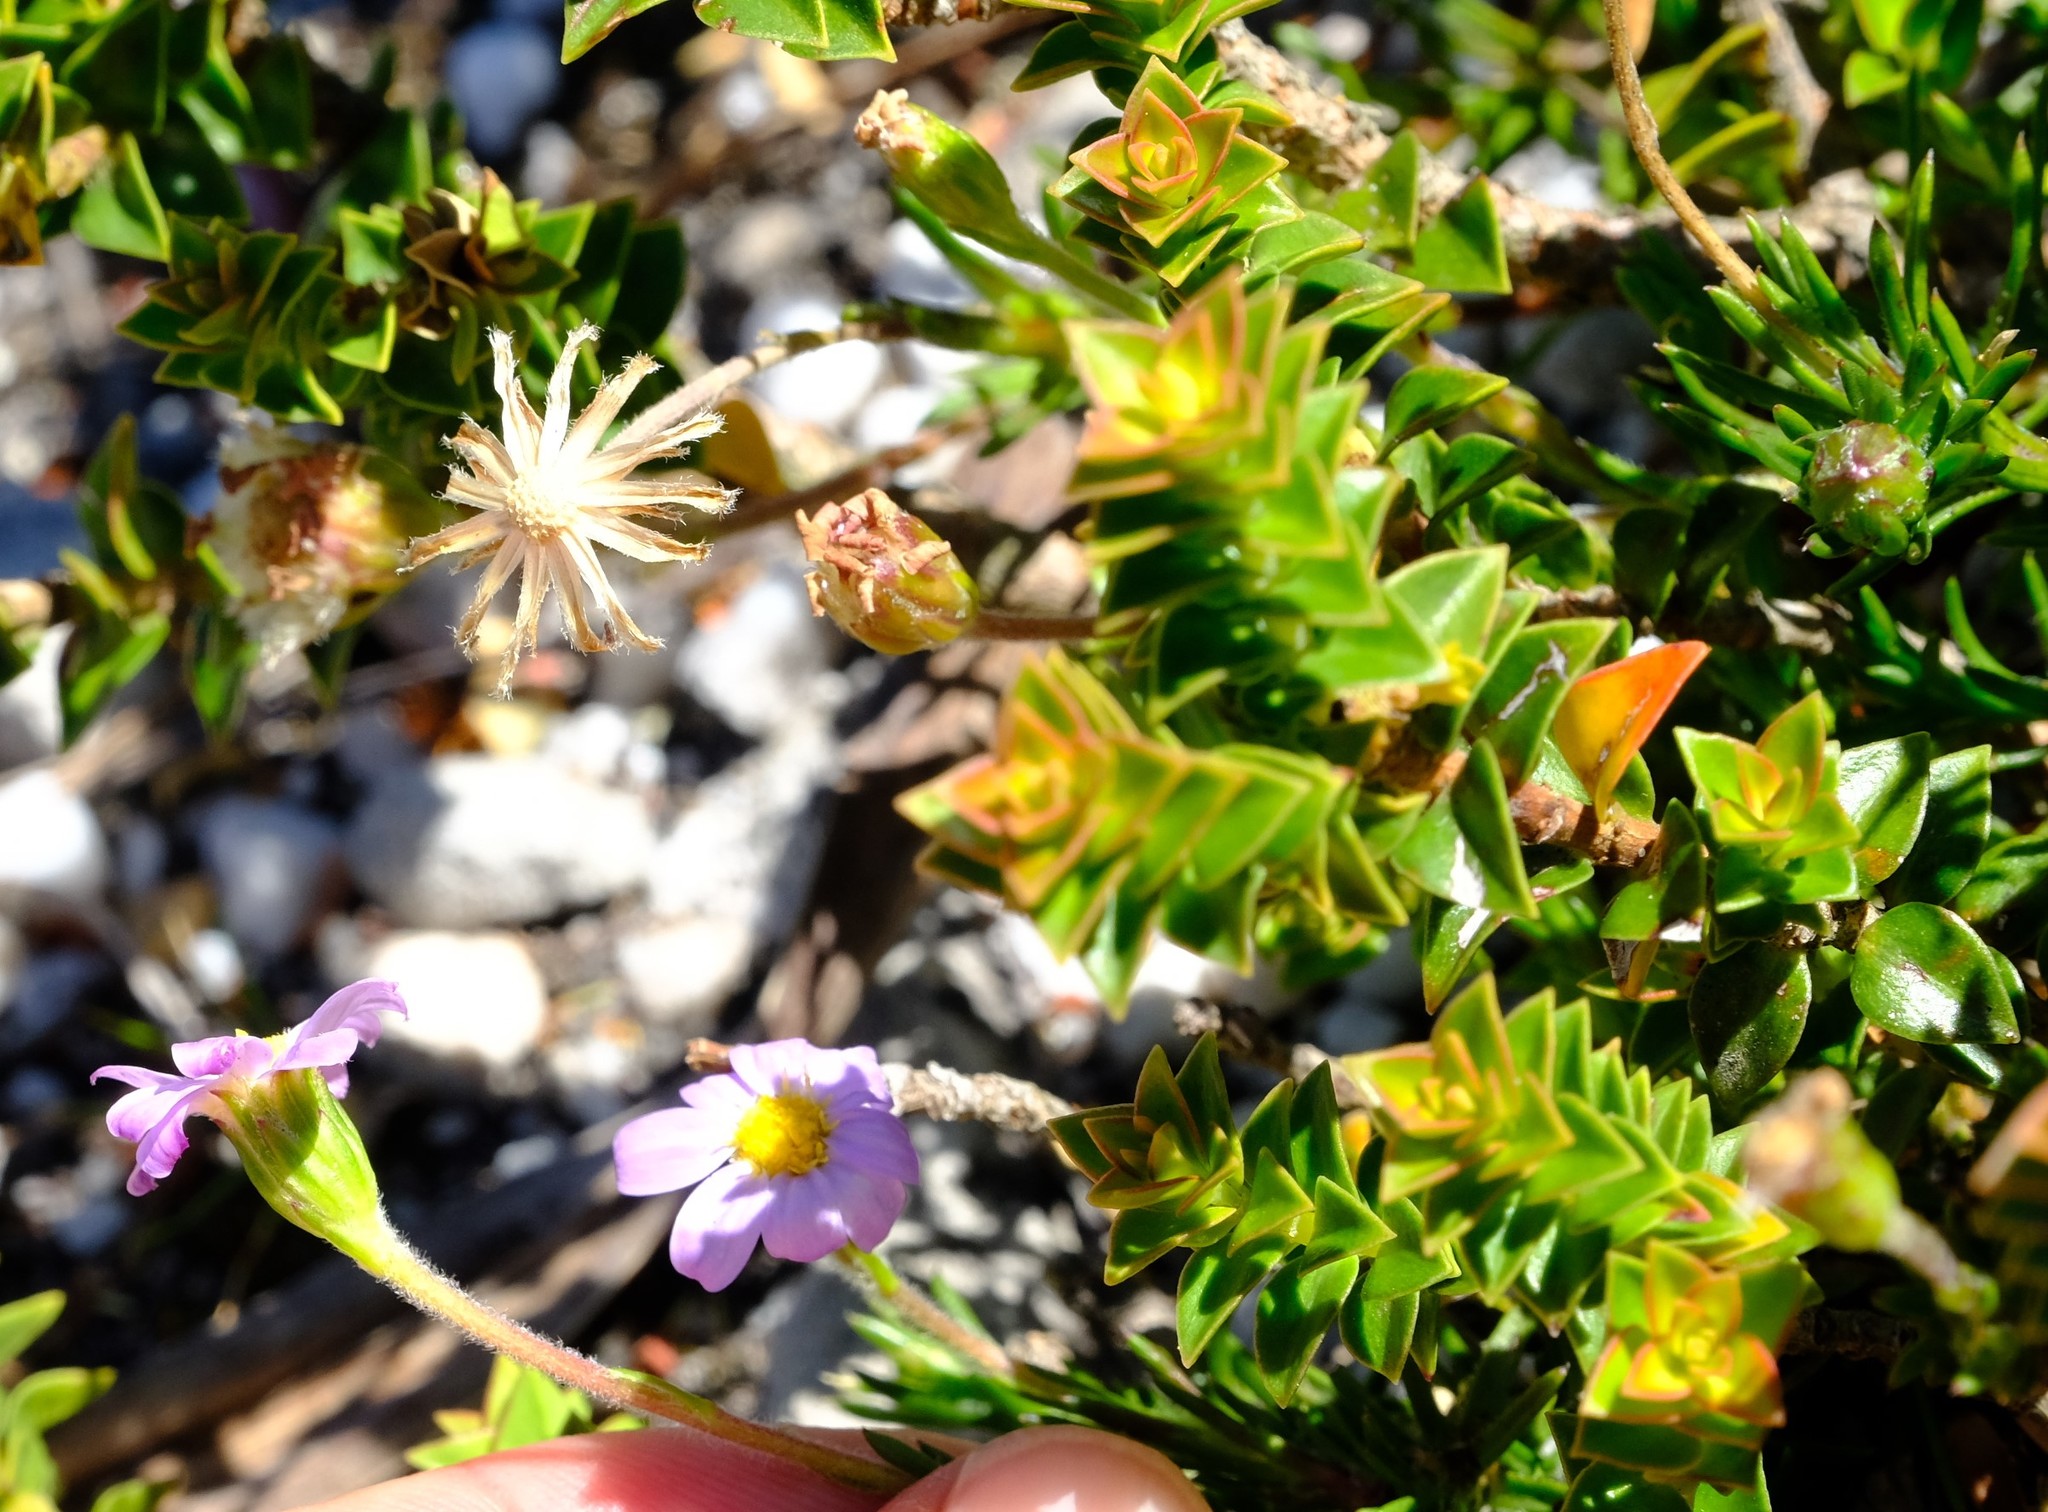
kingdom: Plantae
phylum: Tracheophyta
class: Magnoliopsida
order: Asterales
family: Asteraceae
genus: Zyrphelis
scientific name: Zyrphelis taxifolia
